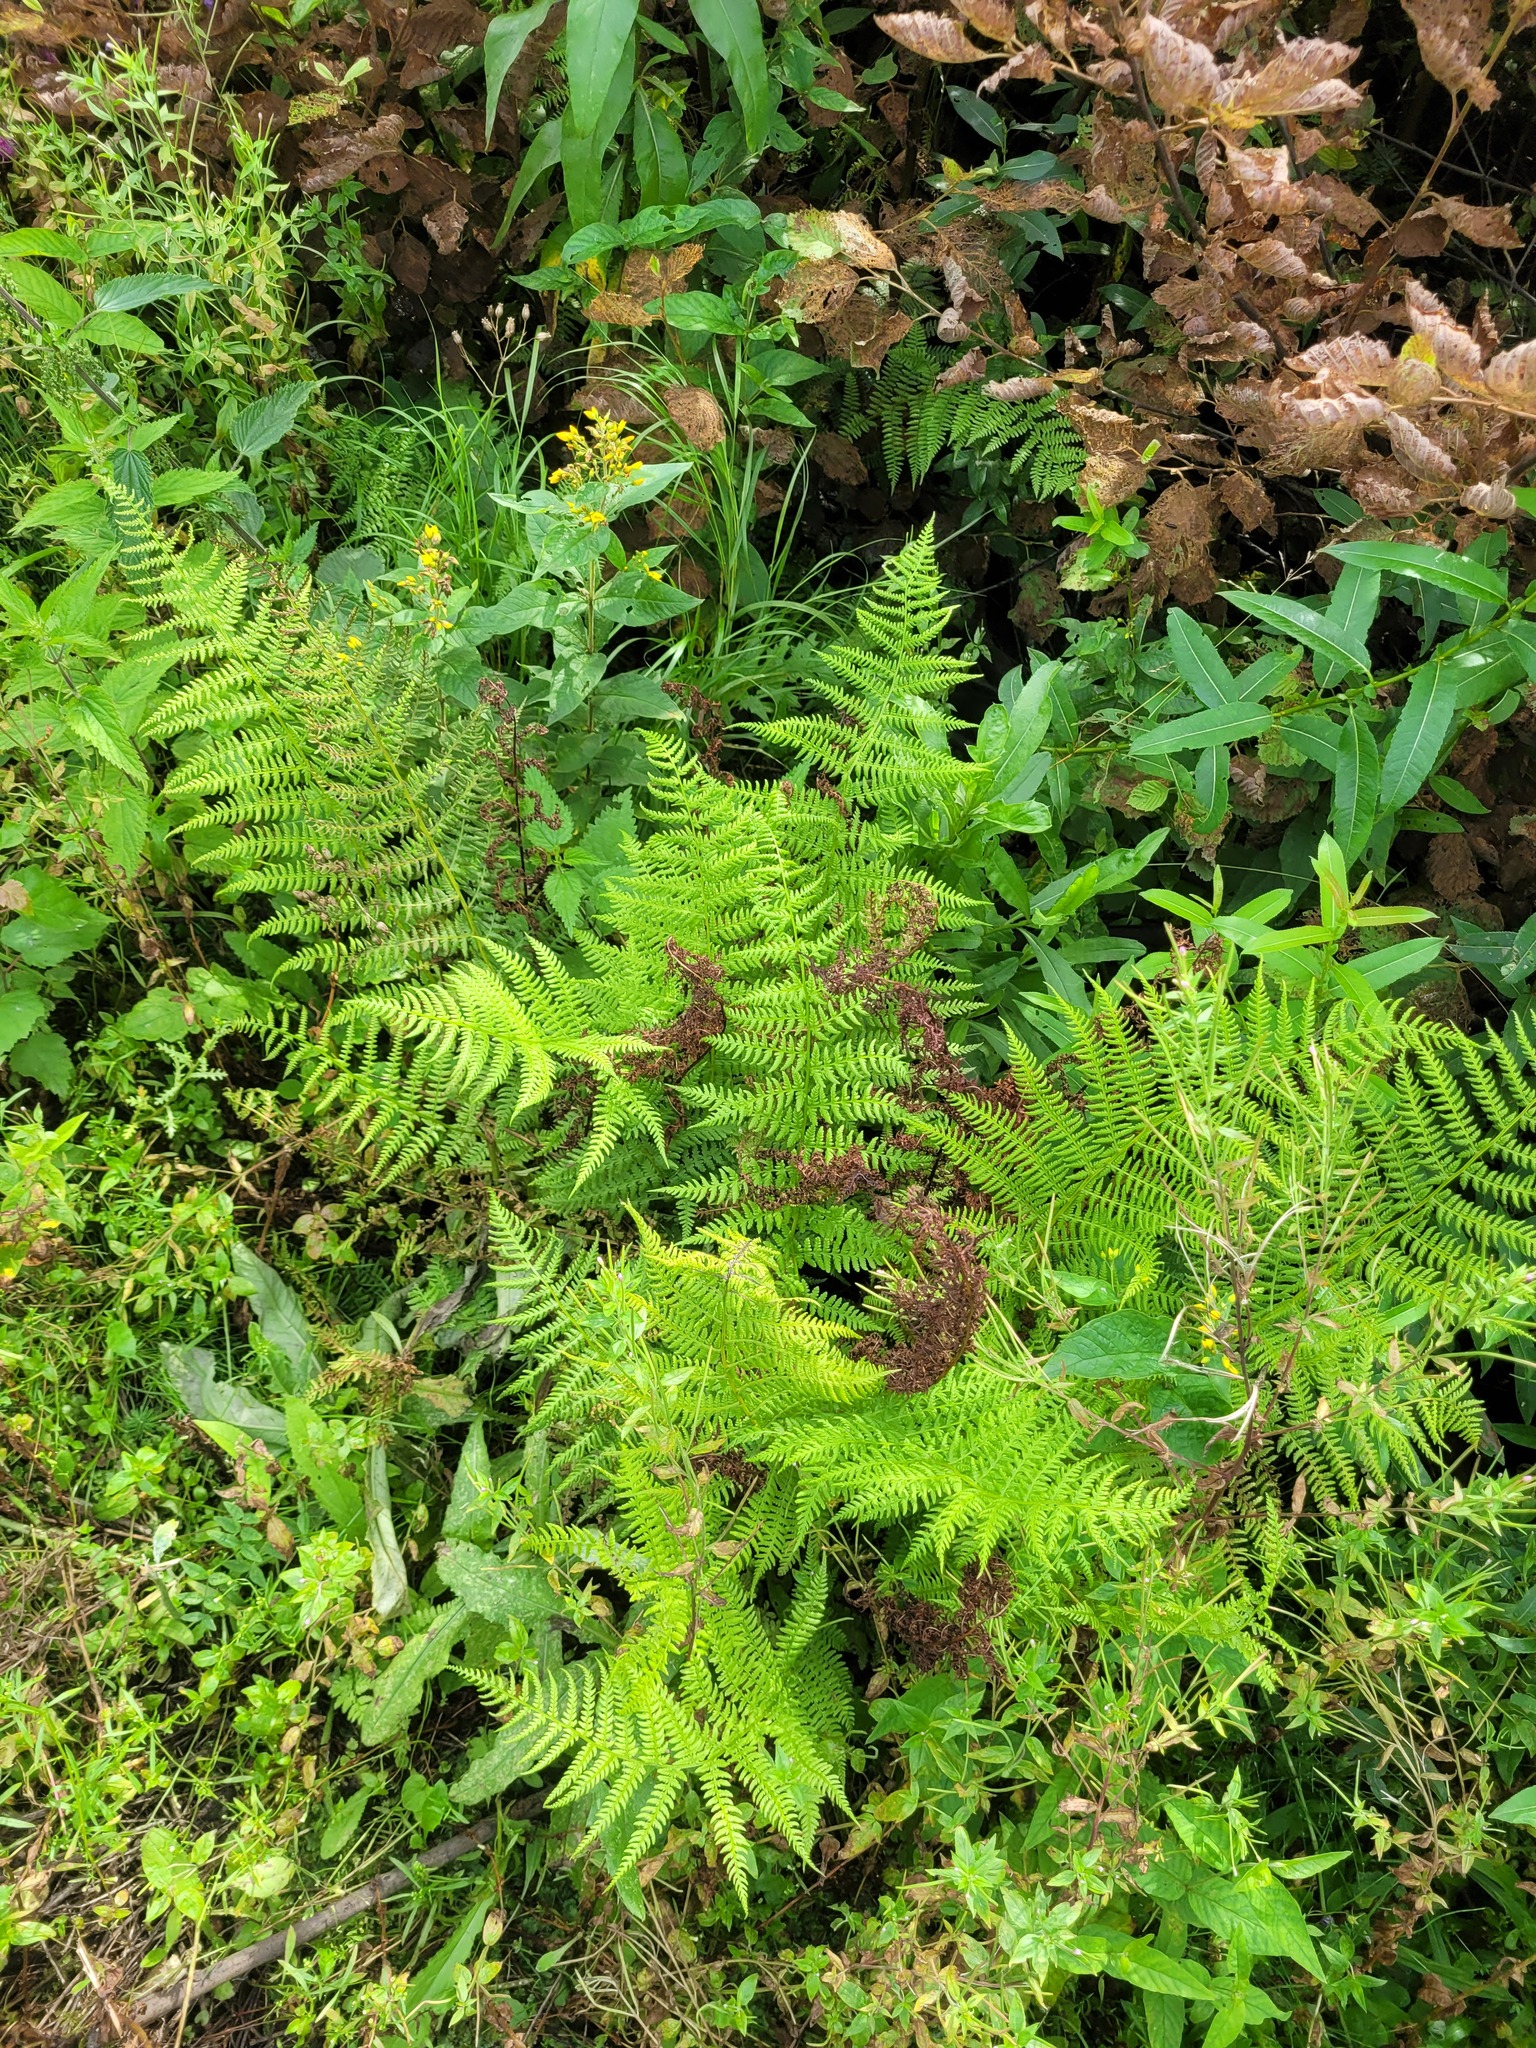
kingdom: Plantae
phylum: Tracheophyta
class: Polypodiopsida
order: Polypodiales
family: Athyriaceae
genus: Athyrium
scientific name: Athyrium filix-femina
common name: Lady fern
